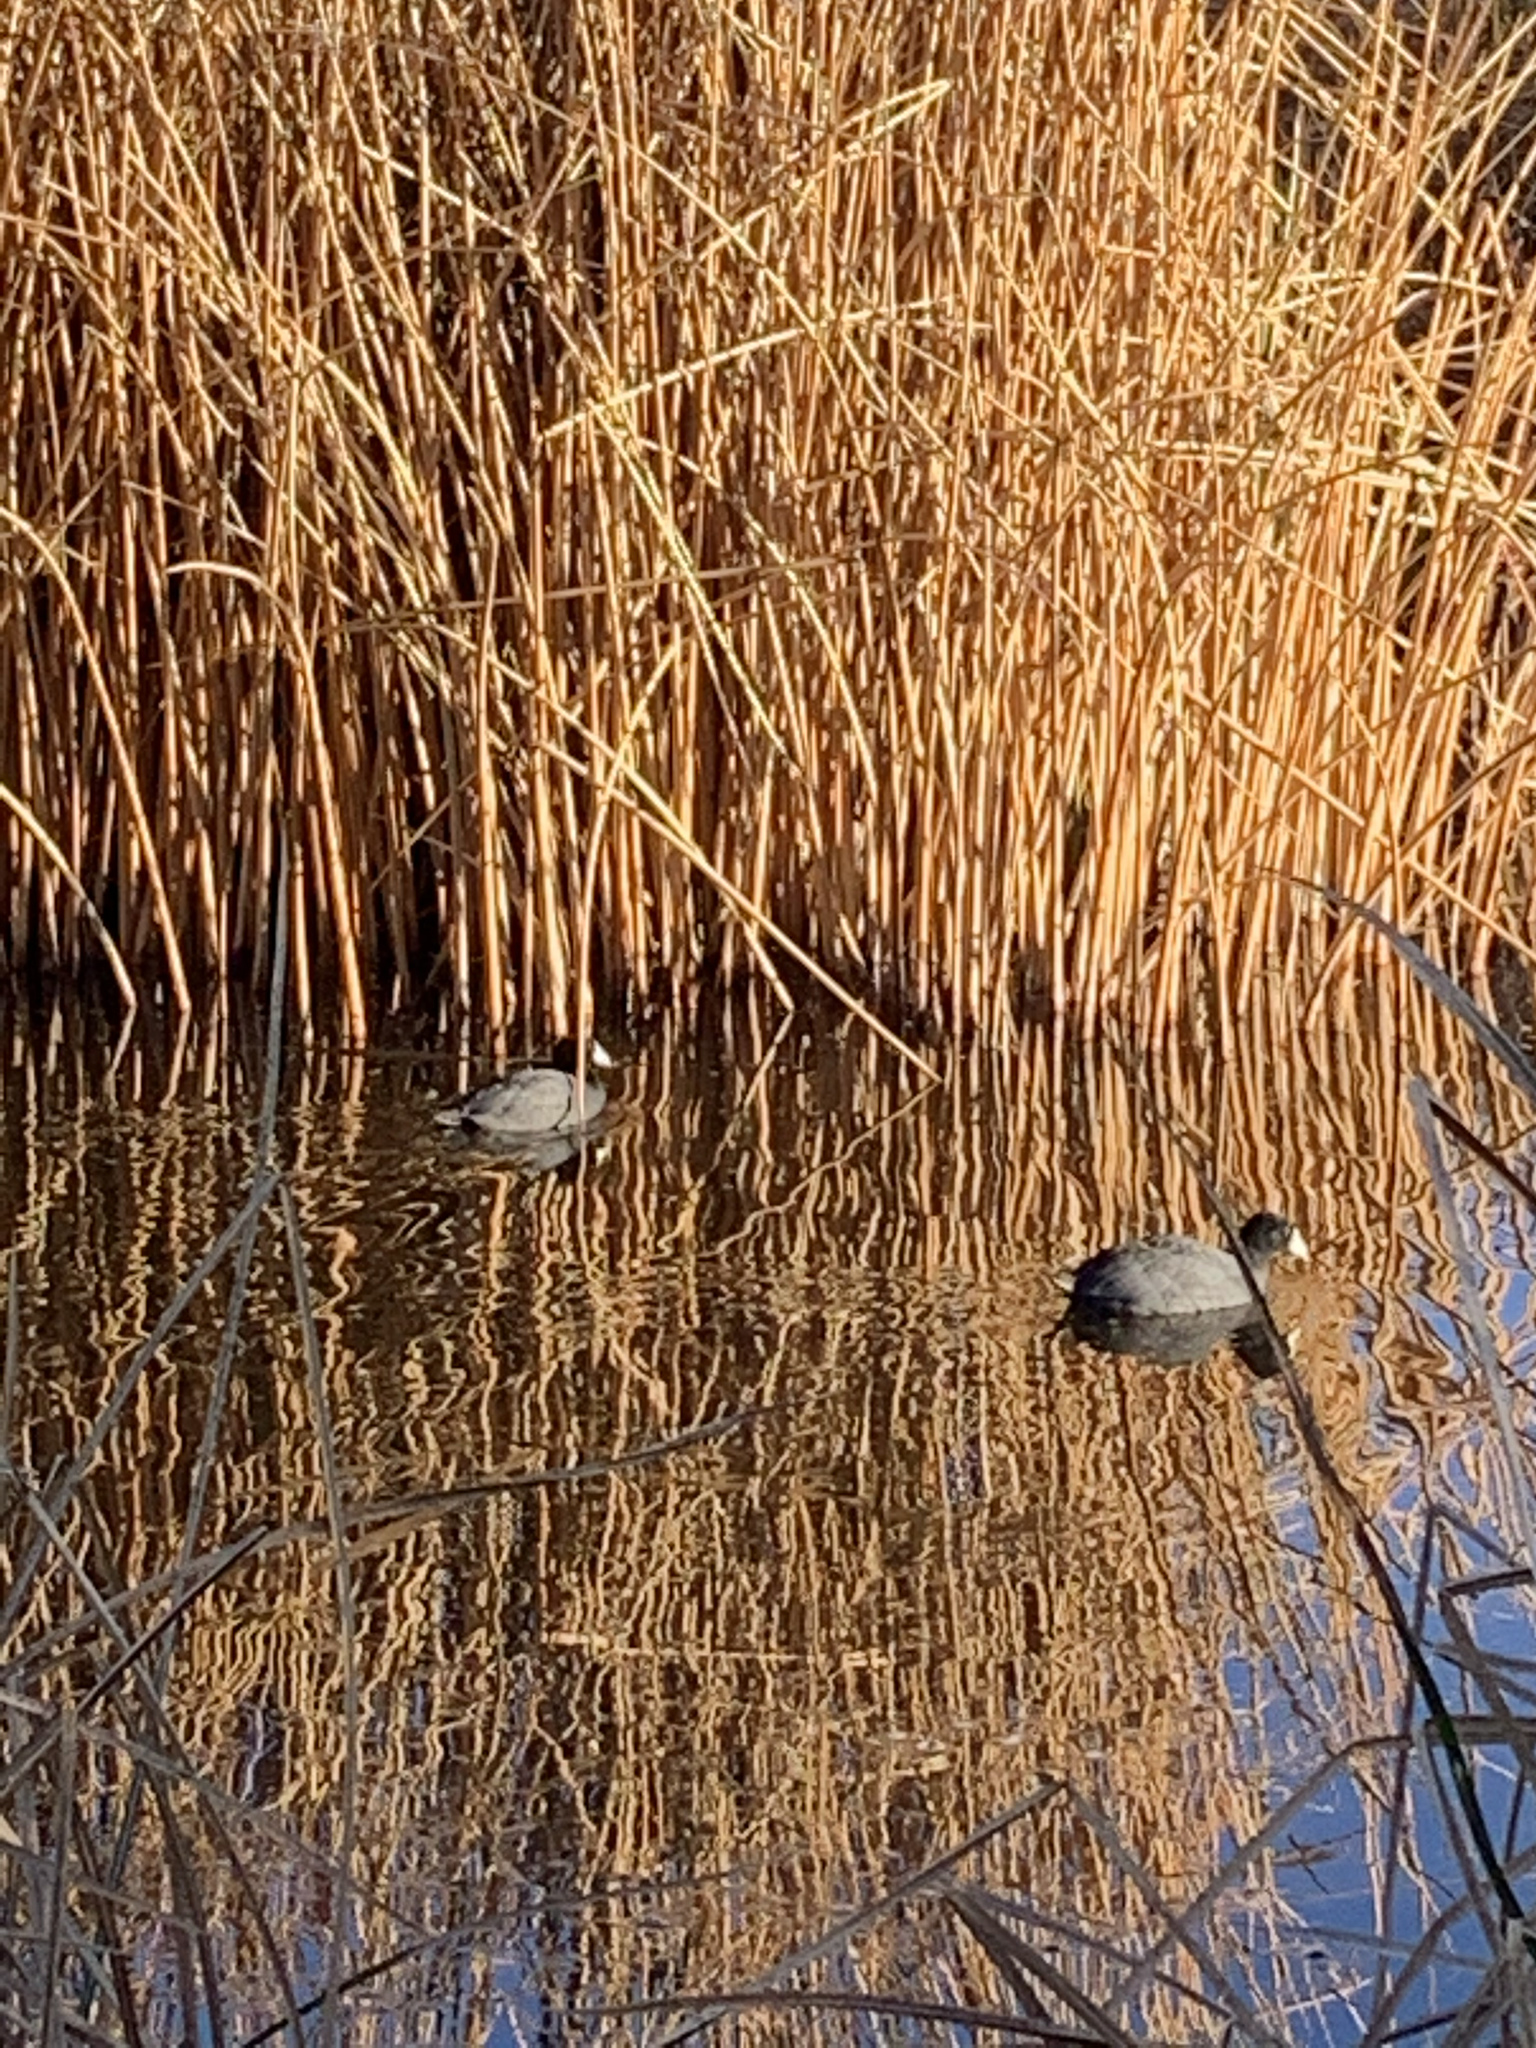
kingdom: Animalia
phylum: Chordata
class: Aves
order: Gruiformes
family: Rallidae
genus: Fulica
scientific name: Fulica americana
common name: American coot
